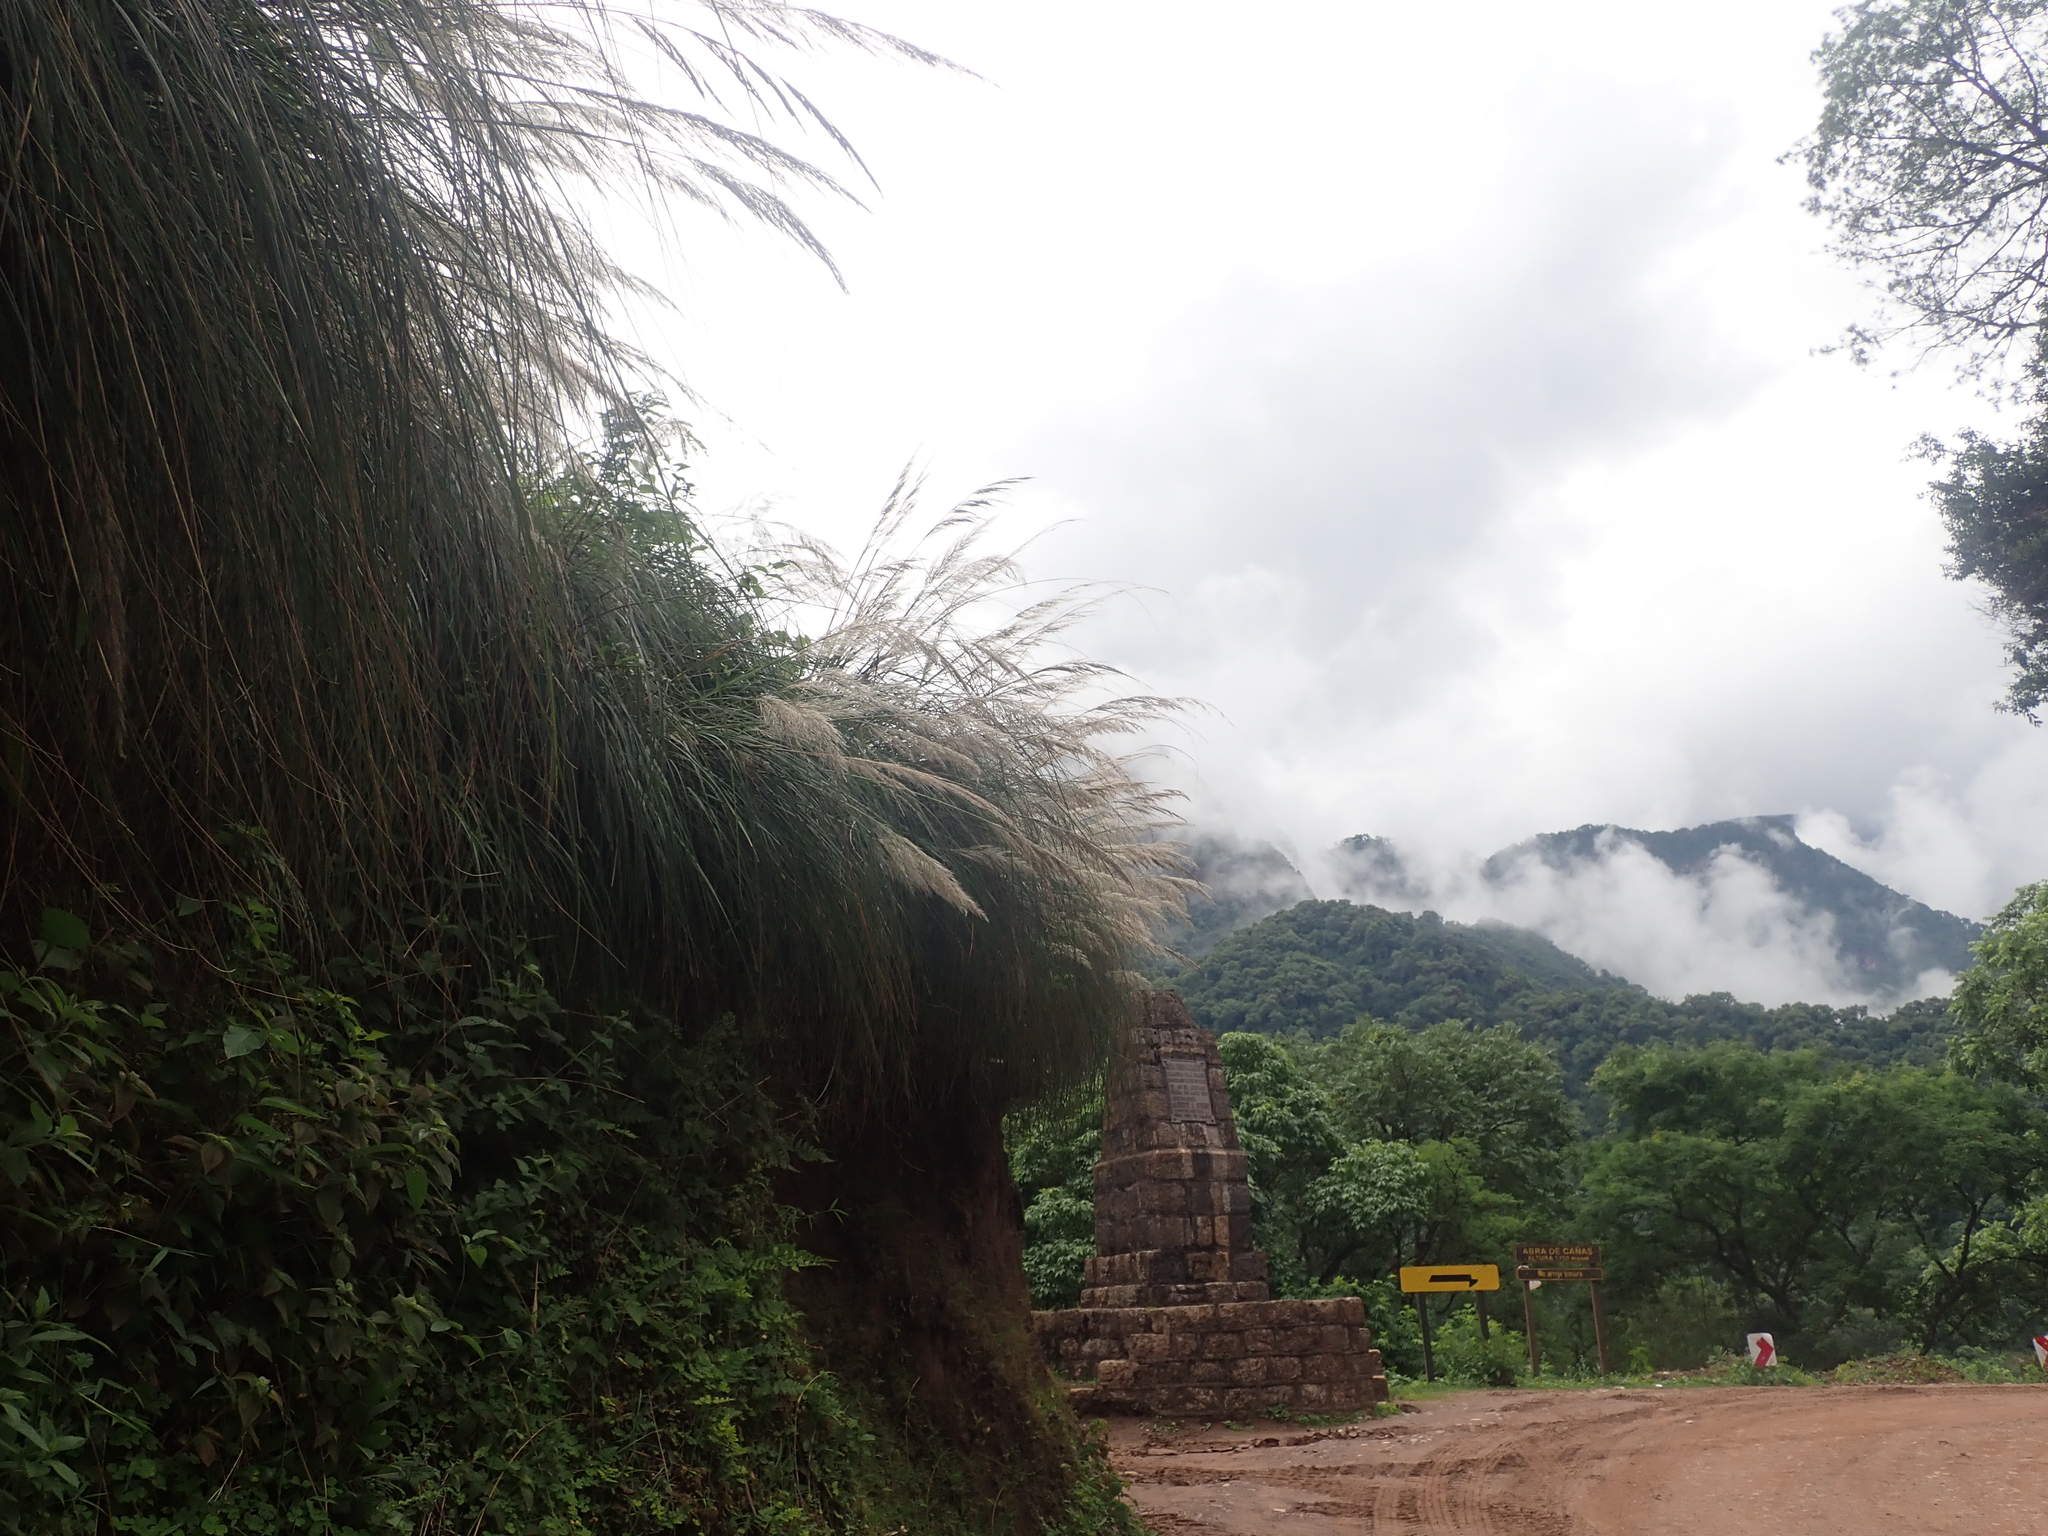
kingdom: Plantae
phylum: Tracheophyta
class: Liliopsida
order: Poales
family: Poaceae
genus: Cortaderia
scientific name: Cortaderia hieronymi
